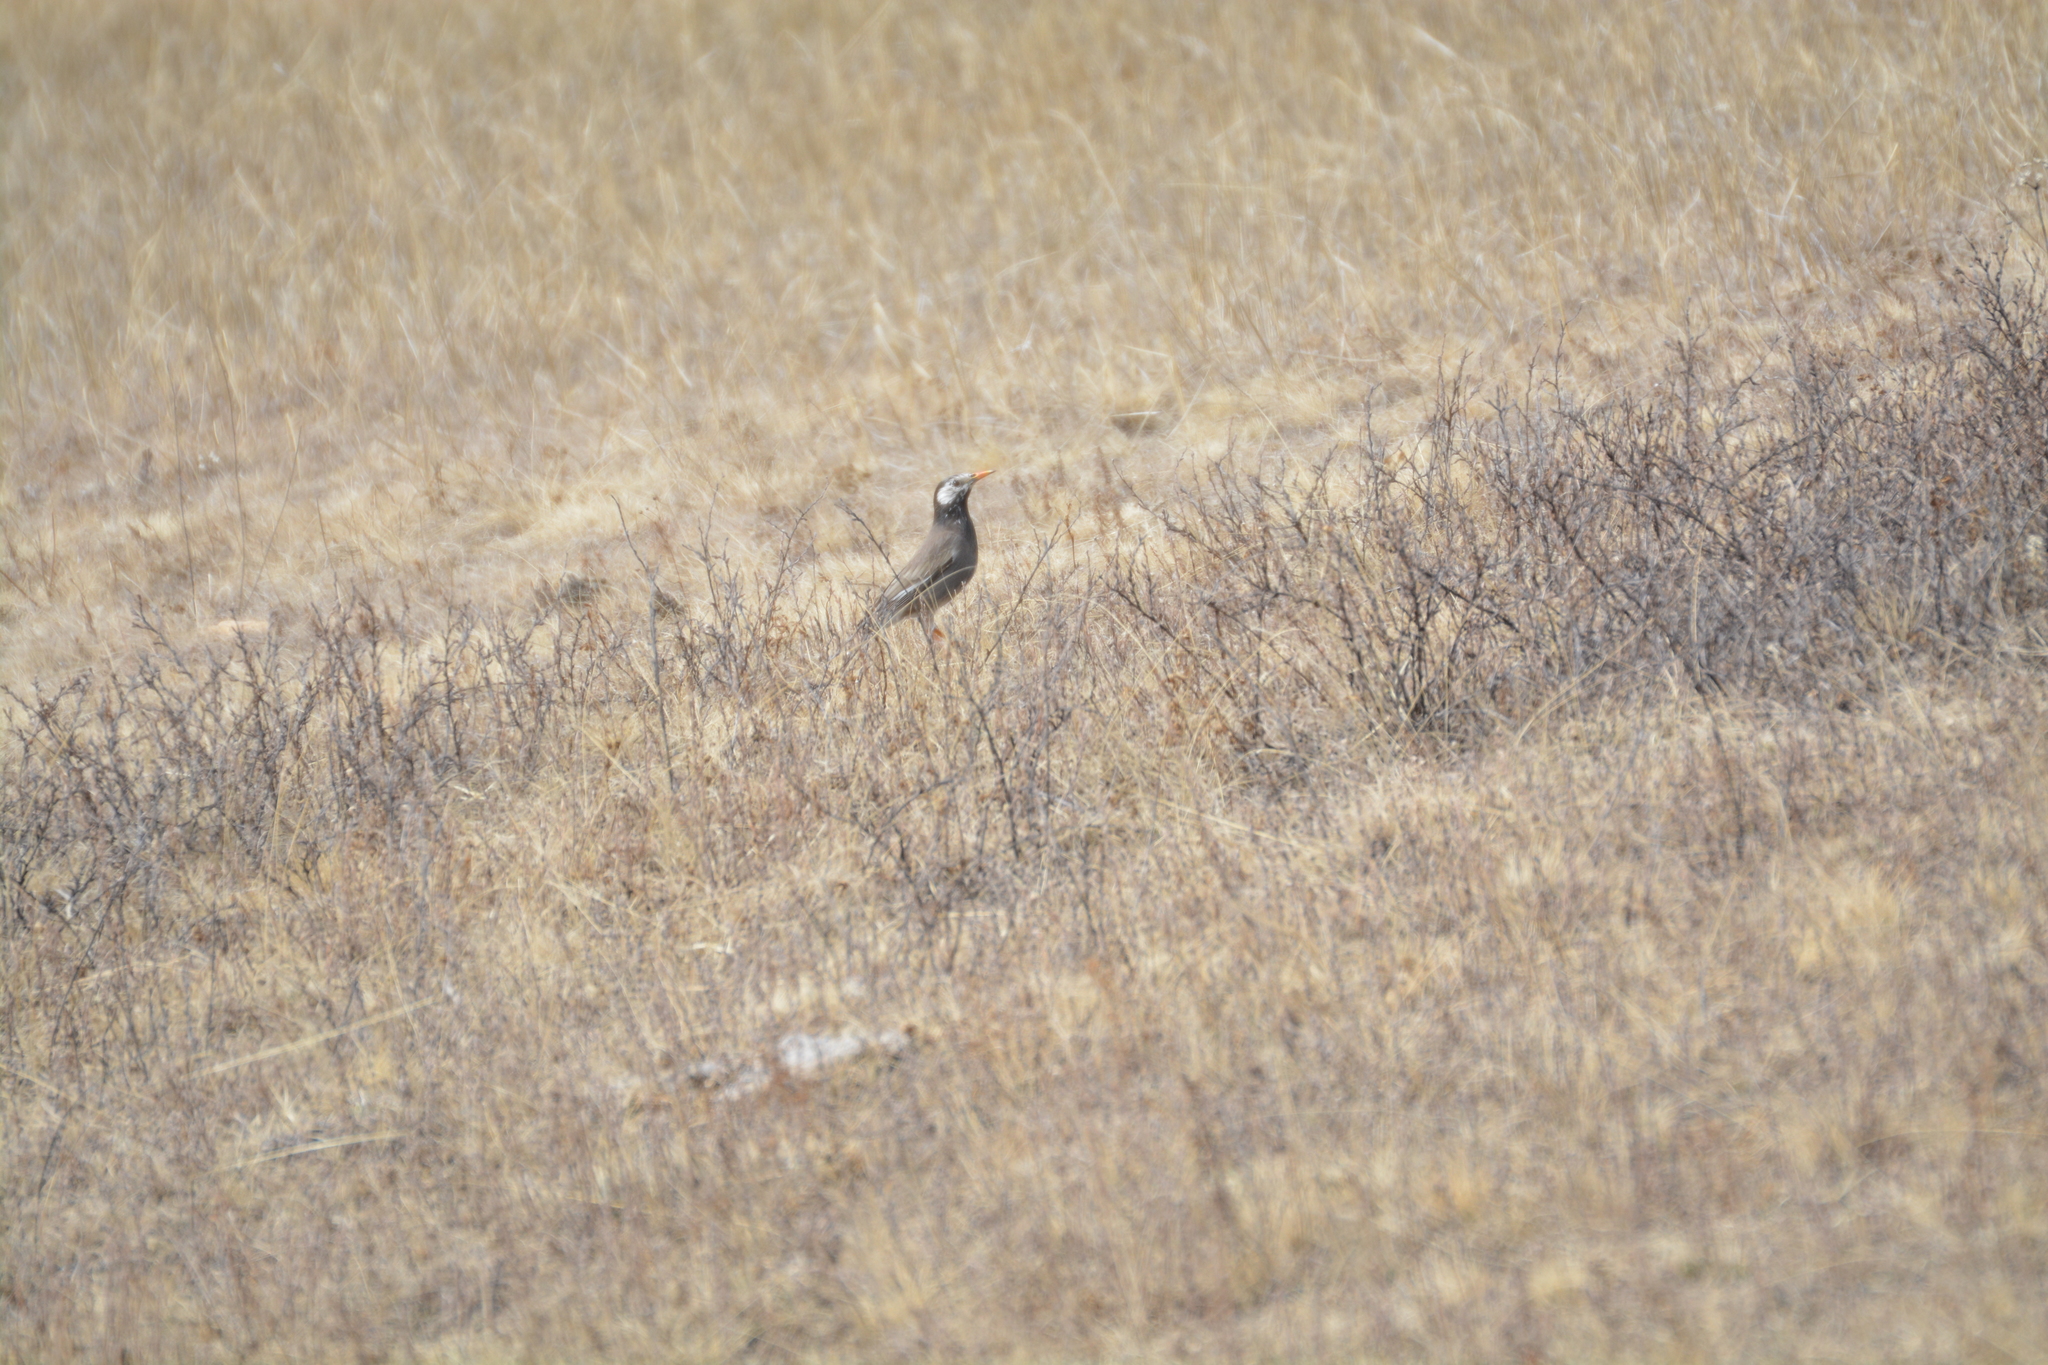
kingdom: Animalia
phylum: Chordata
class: Aves
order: Passeriformes
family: Sturnidae
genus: Spodiopsar
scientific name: Spodiopsar cineraceus
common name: White-cheeked starling
